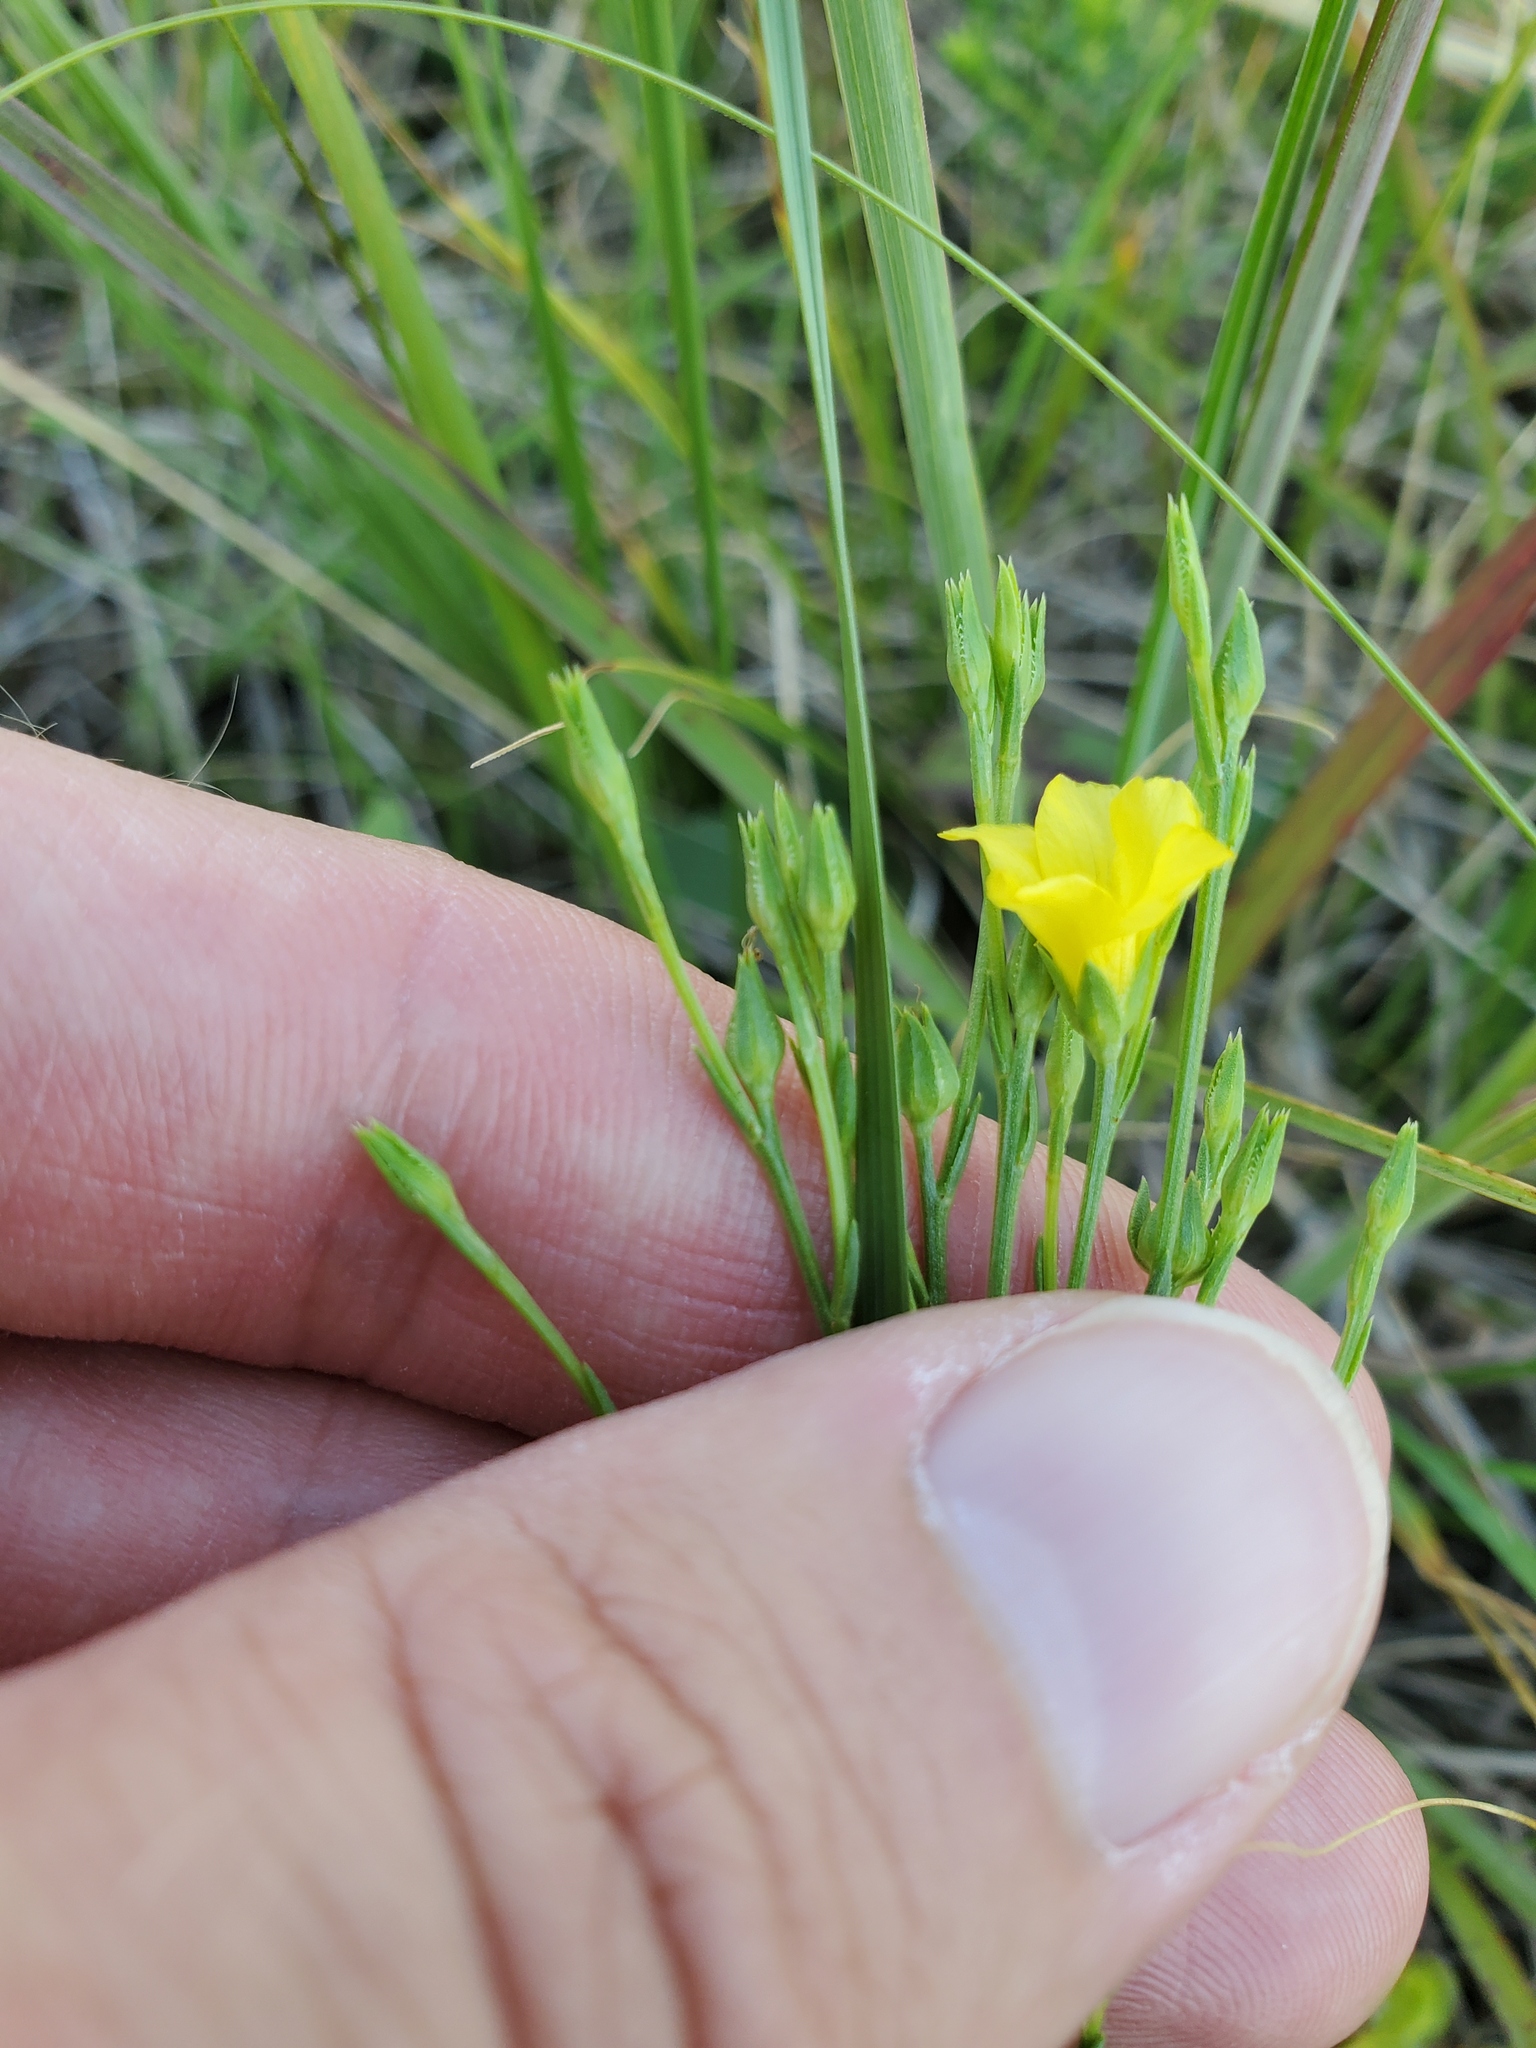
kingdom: Plantae
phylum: Tracheophyta
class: Magnoliopsida
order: Malpighiales
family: Linaceae
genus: Linum
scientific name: Linum sulcatum
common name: Grooved flax
